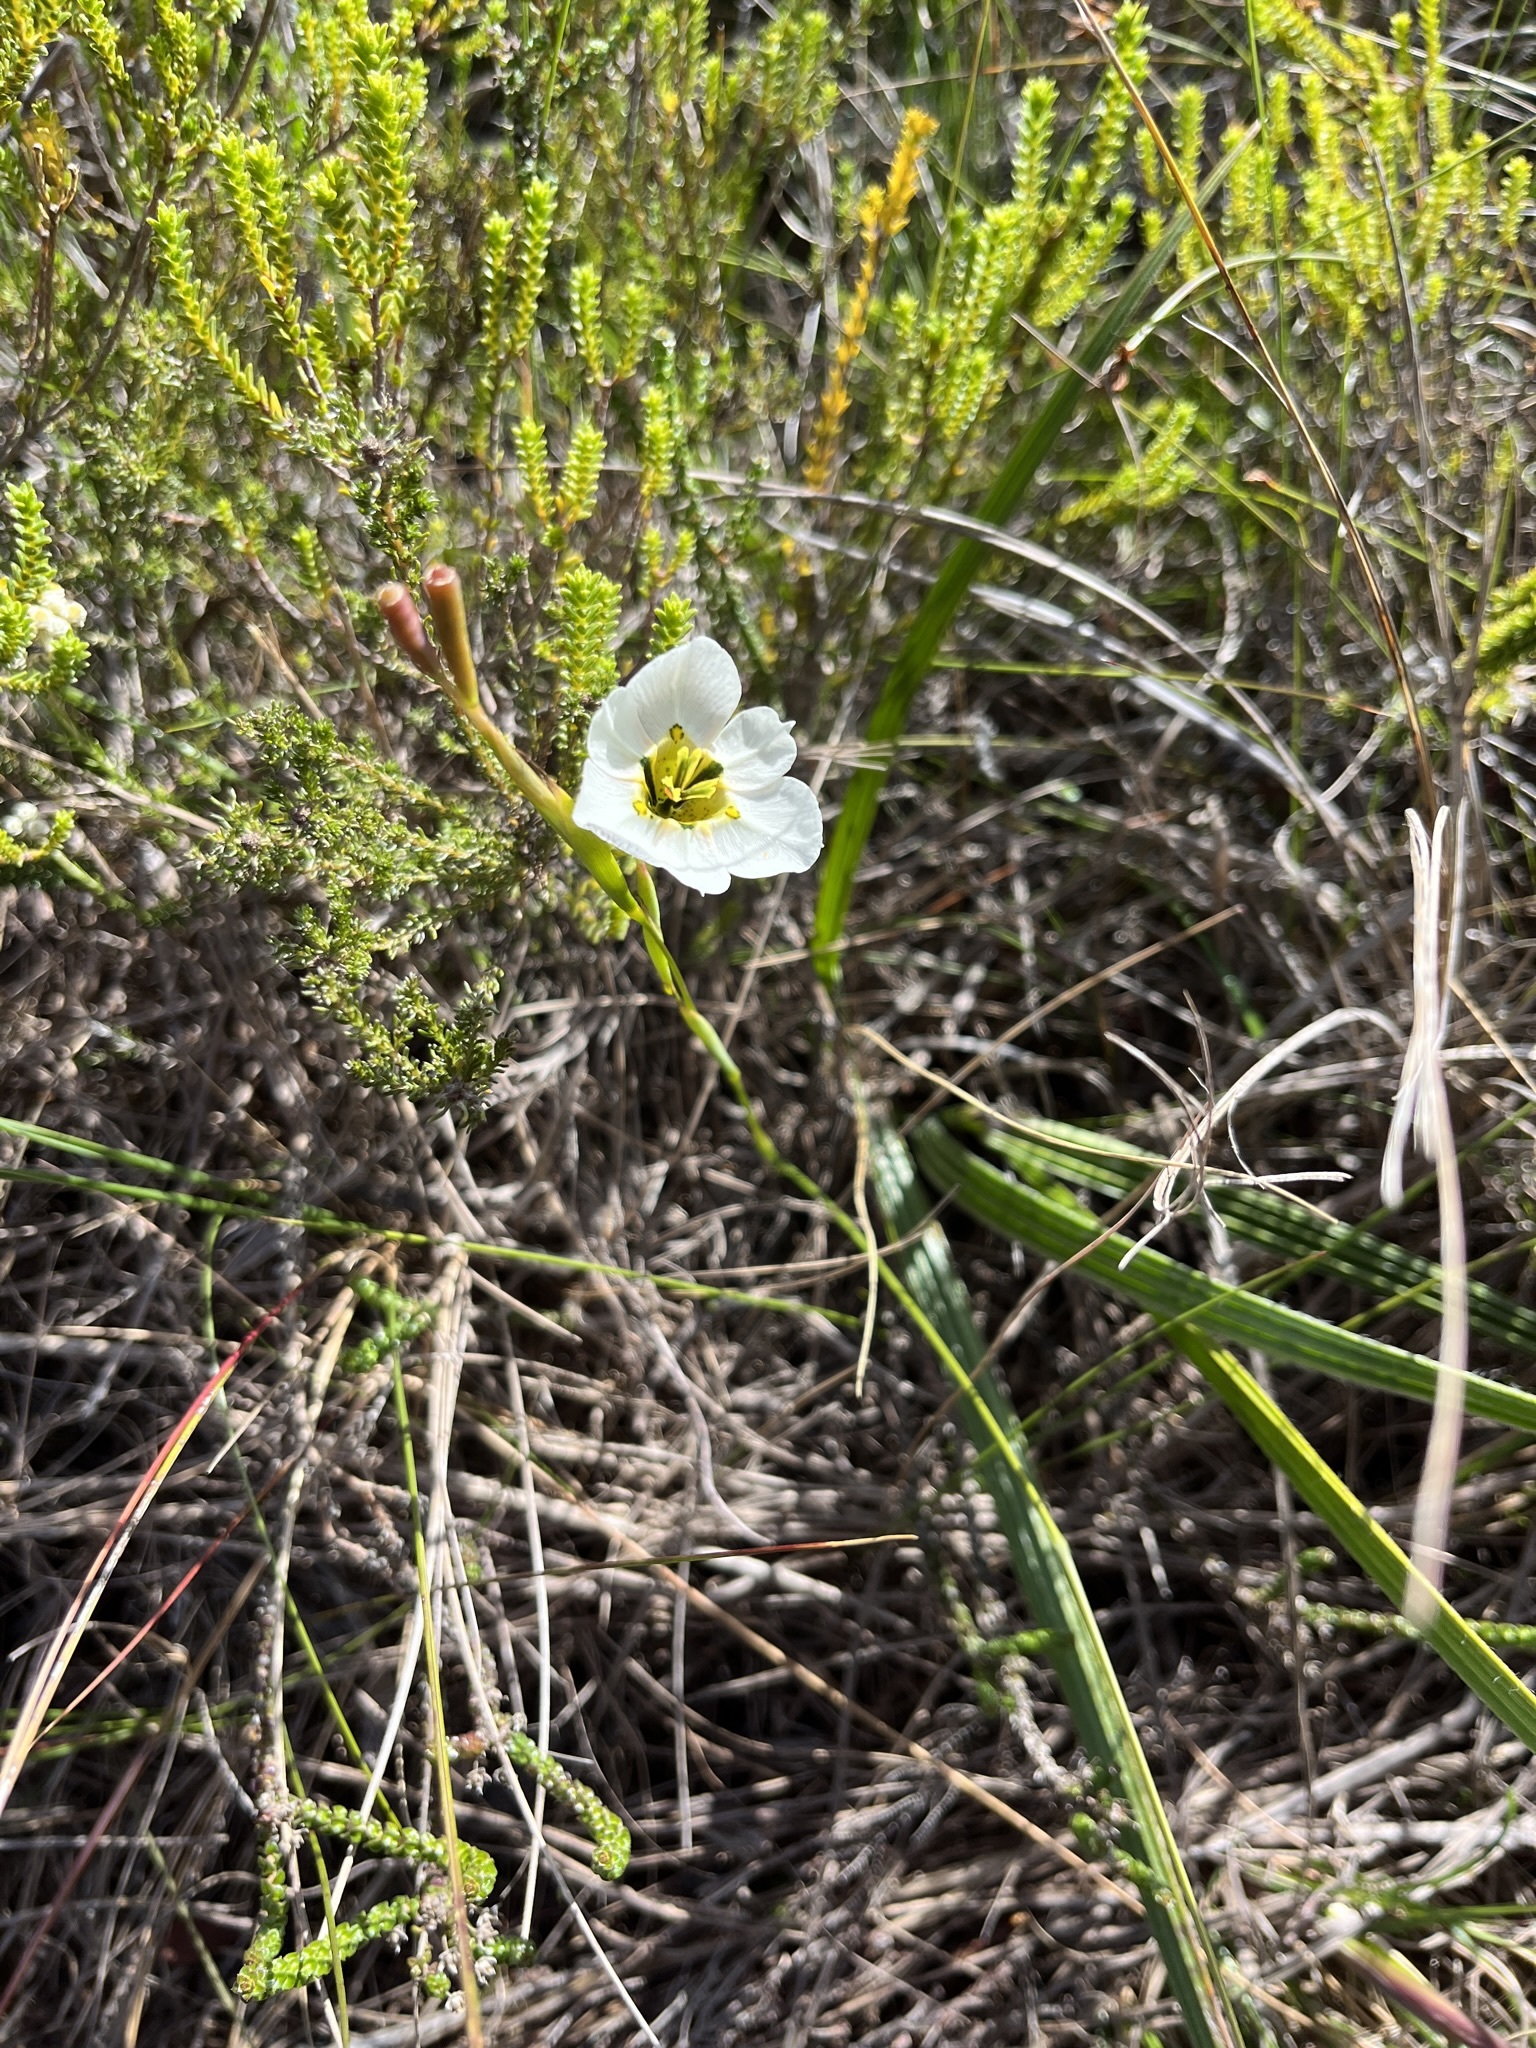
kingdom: Plantae
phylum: Tracheophyta
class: Liliopsida
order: Asparagales
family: Iridaceae
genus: Moraea
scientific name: Moraea cantharophila
